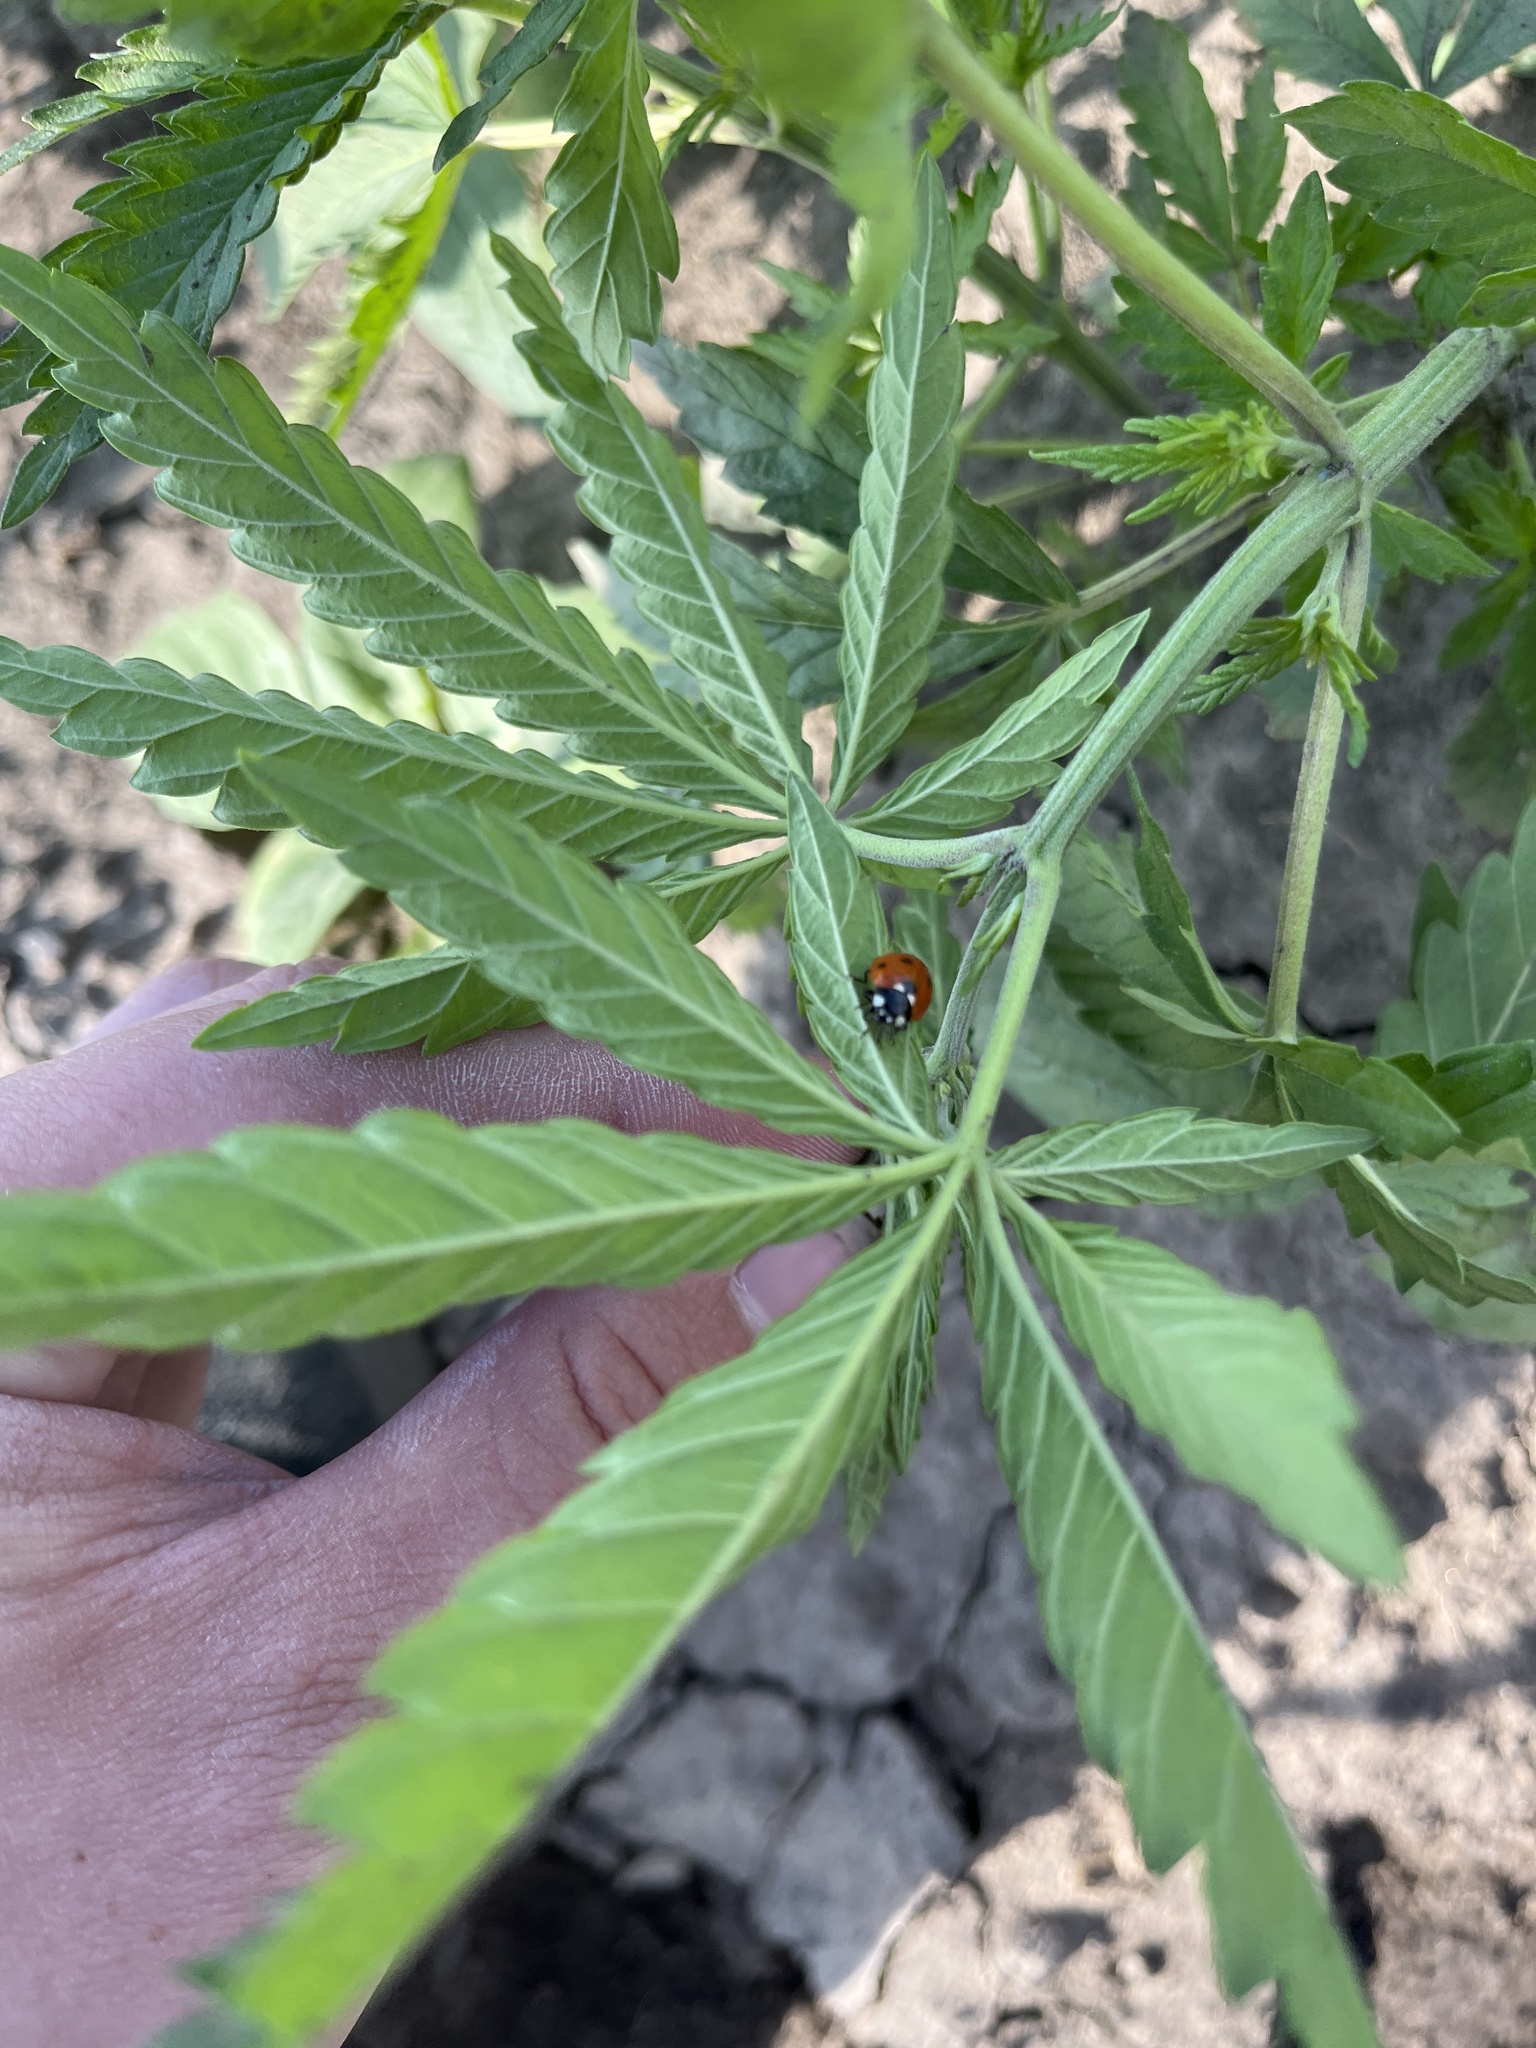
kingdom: Animalia
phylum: Arthropoda
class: Insecta
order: Coleoptera
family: Coccinellidae
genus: Coccinella
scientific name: Coccinella septempunctata
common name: Sevenspotted lady beetle
